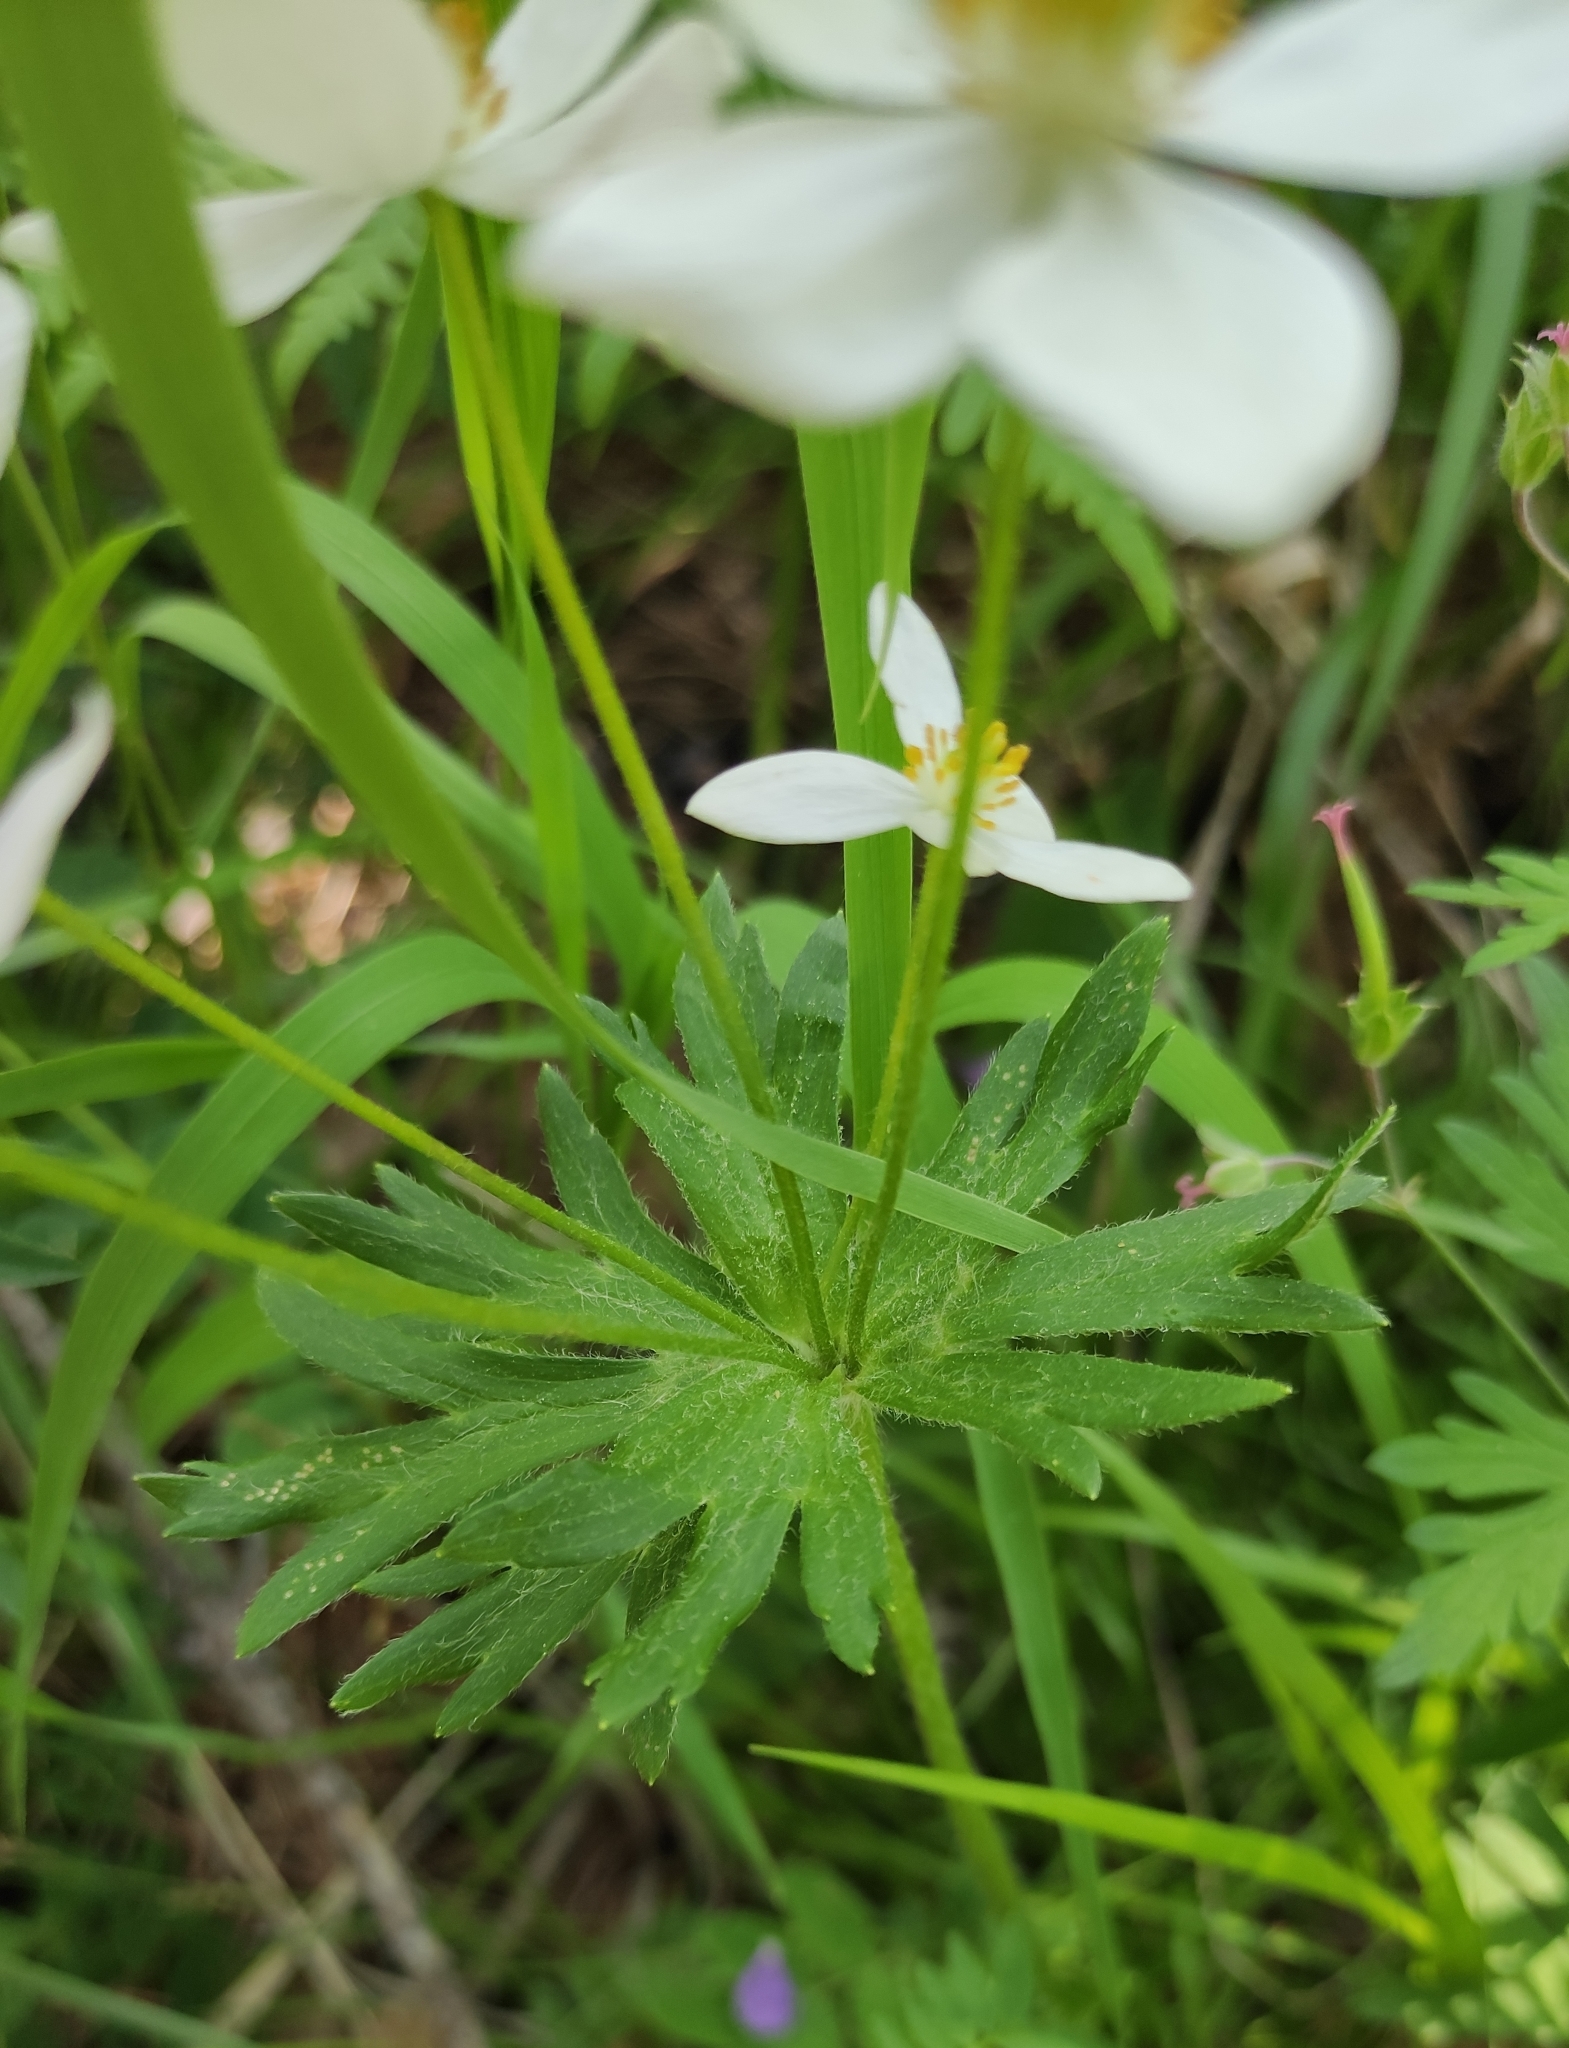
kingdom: Plantae
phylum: Tracheophyta
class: Magnoliopsida
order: Ranunculales
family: Ranunculaceae
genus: Anemonastrum
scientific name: Anemonastrum narcissiflorum
